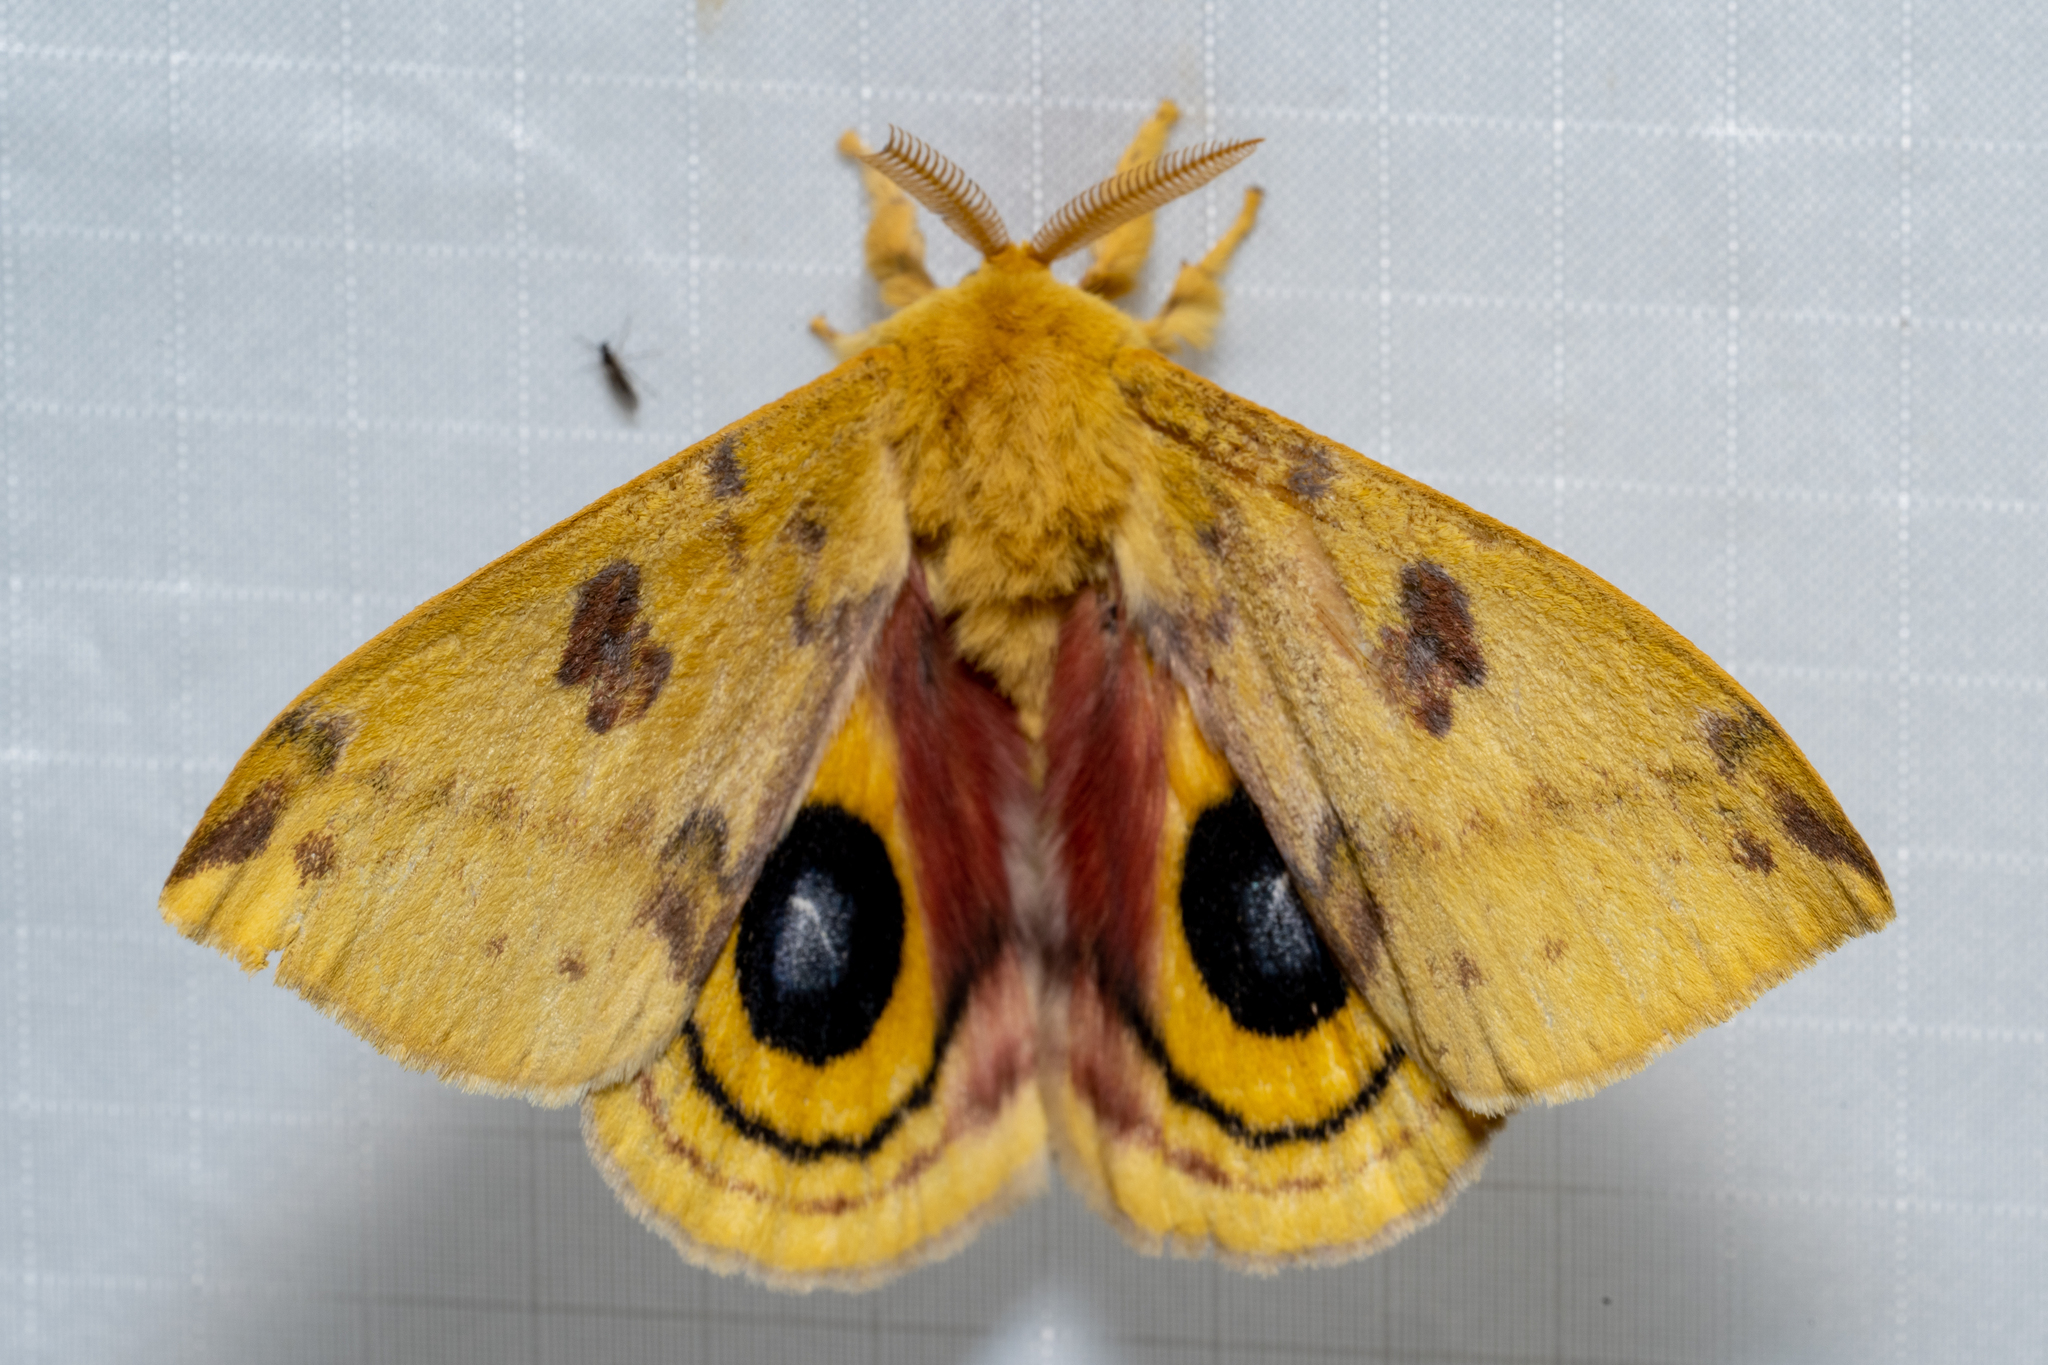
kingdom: Animalia
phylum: Arthropoda
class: Insecta
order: Lepidoptera
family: Saturniidae
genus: Automeris
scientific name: Automeris io
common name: Io moth
